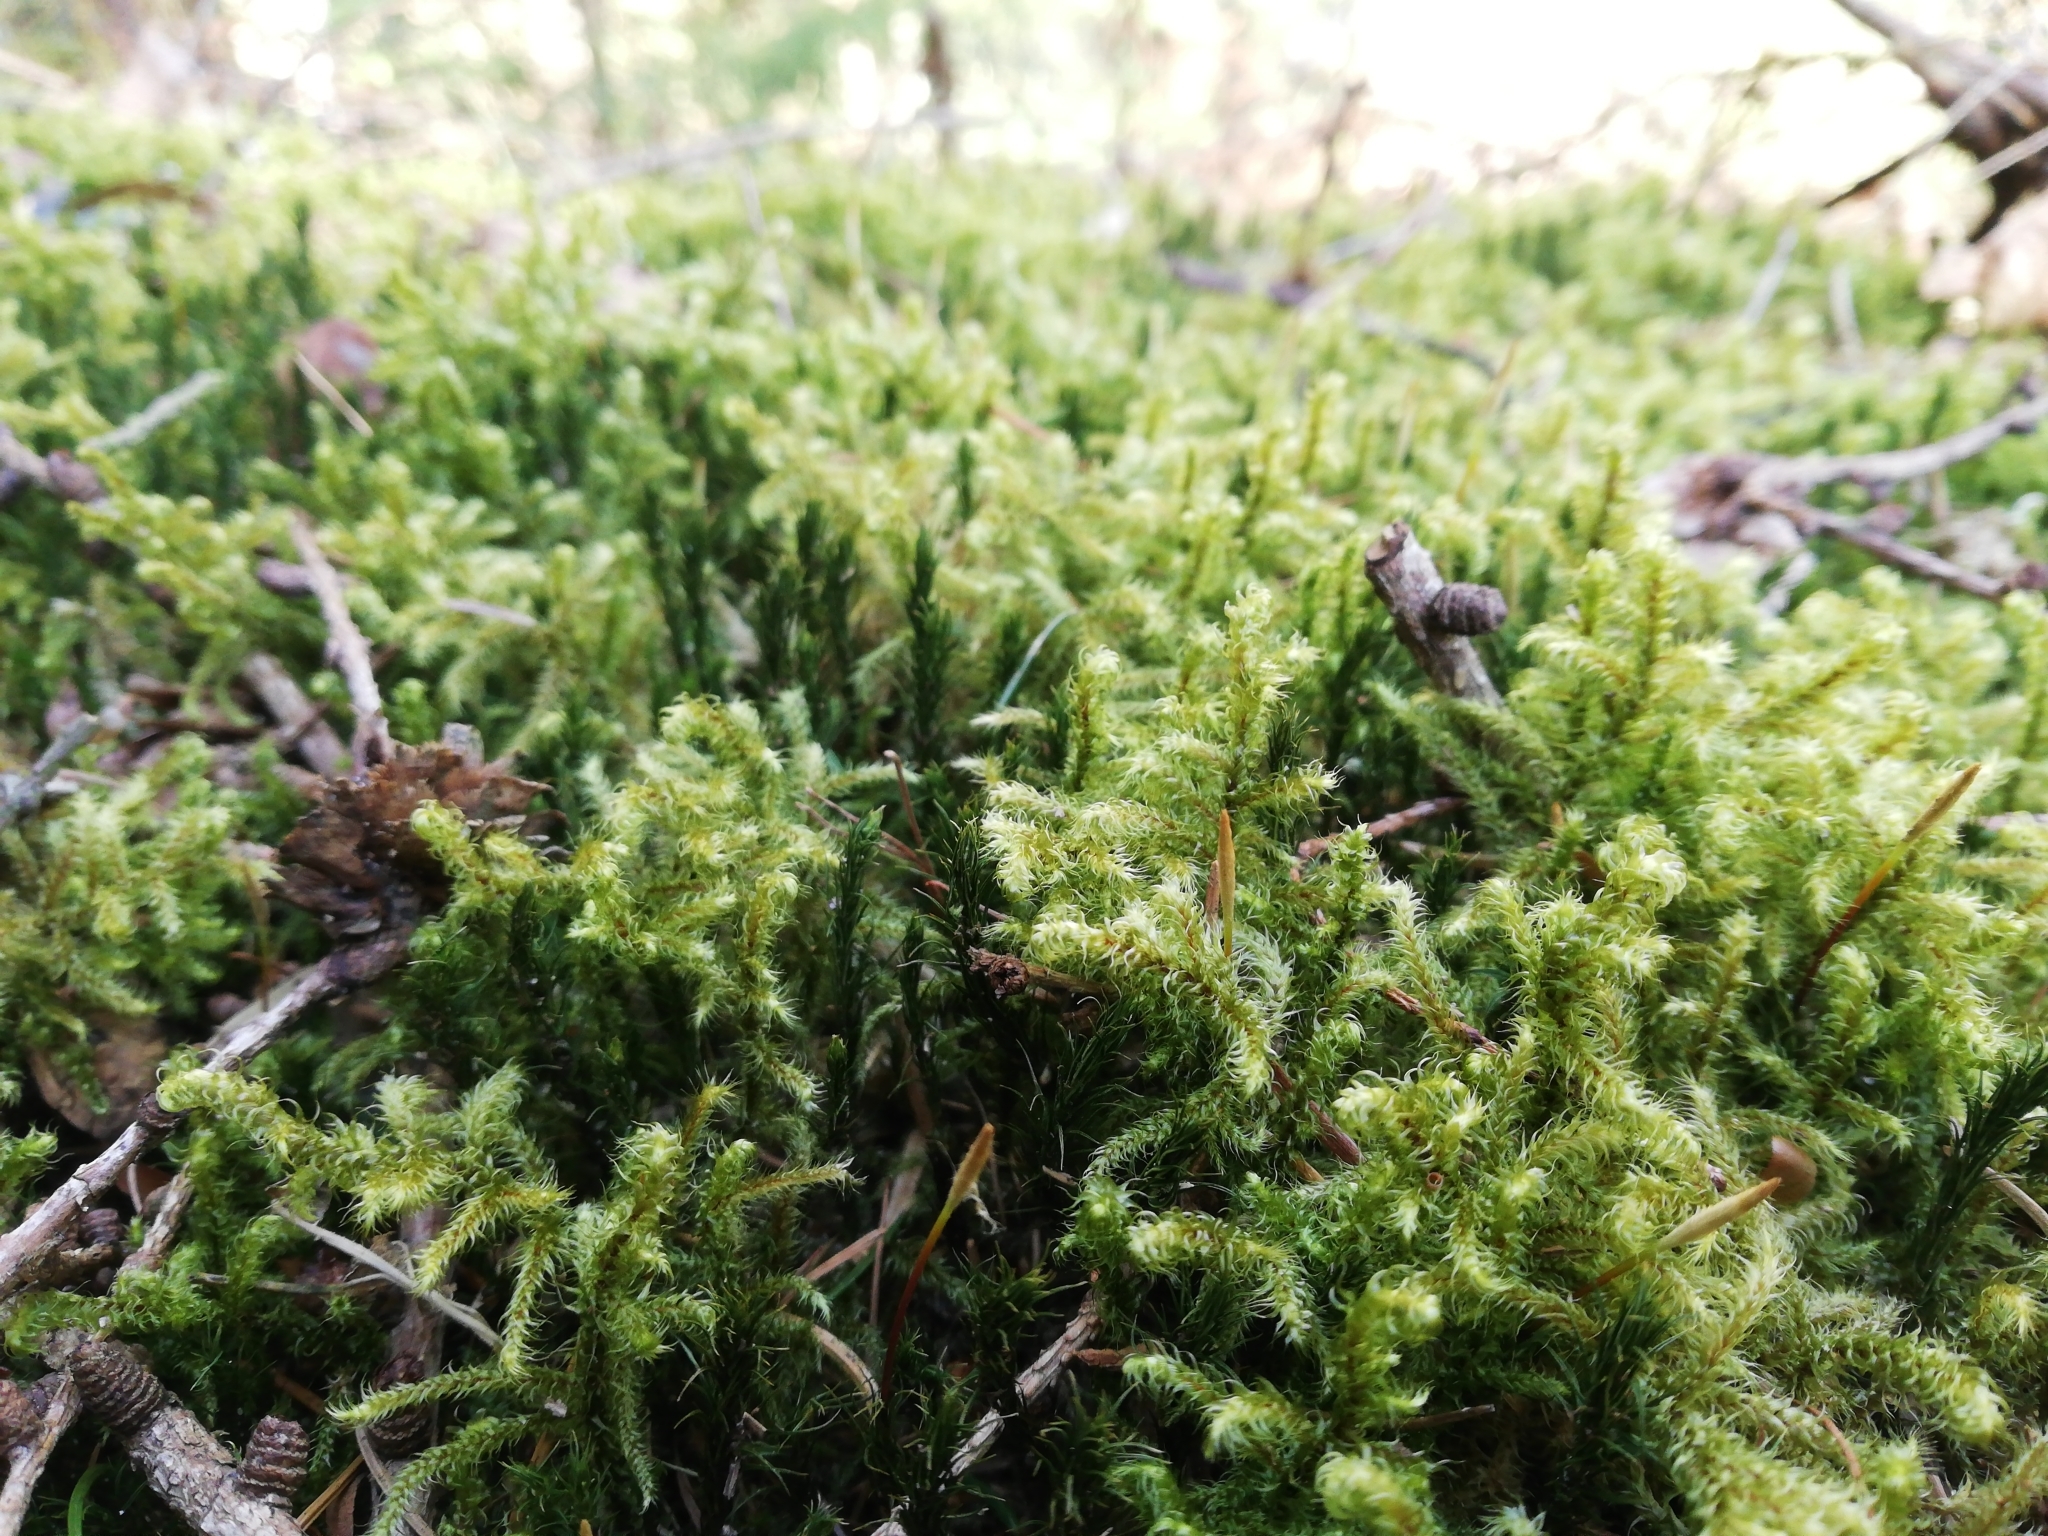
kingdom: Plantae
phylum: Bryophyta
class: Bryopsida
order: Hypnales
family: Hylocomiaceae
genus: Rhytidiadelphus
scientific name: Rhytidiadelphus loreus
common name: Lanky moss
